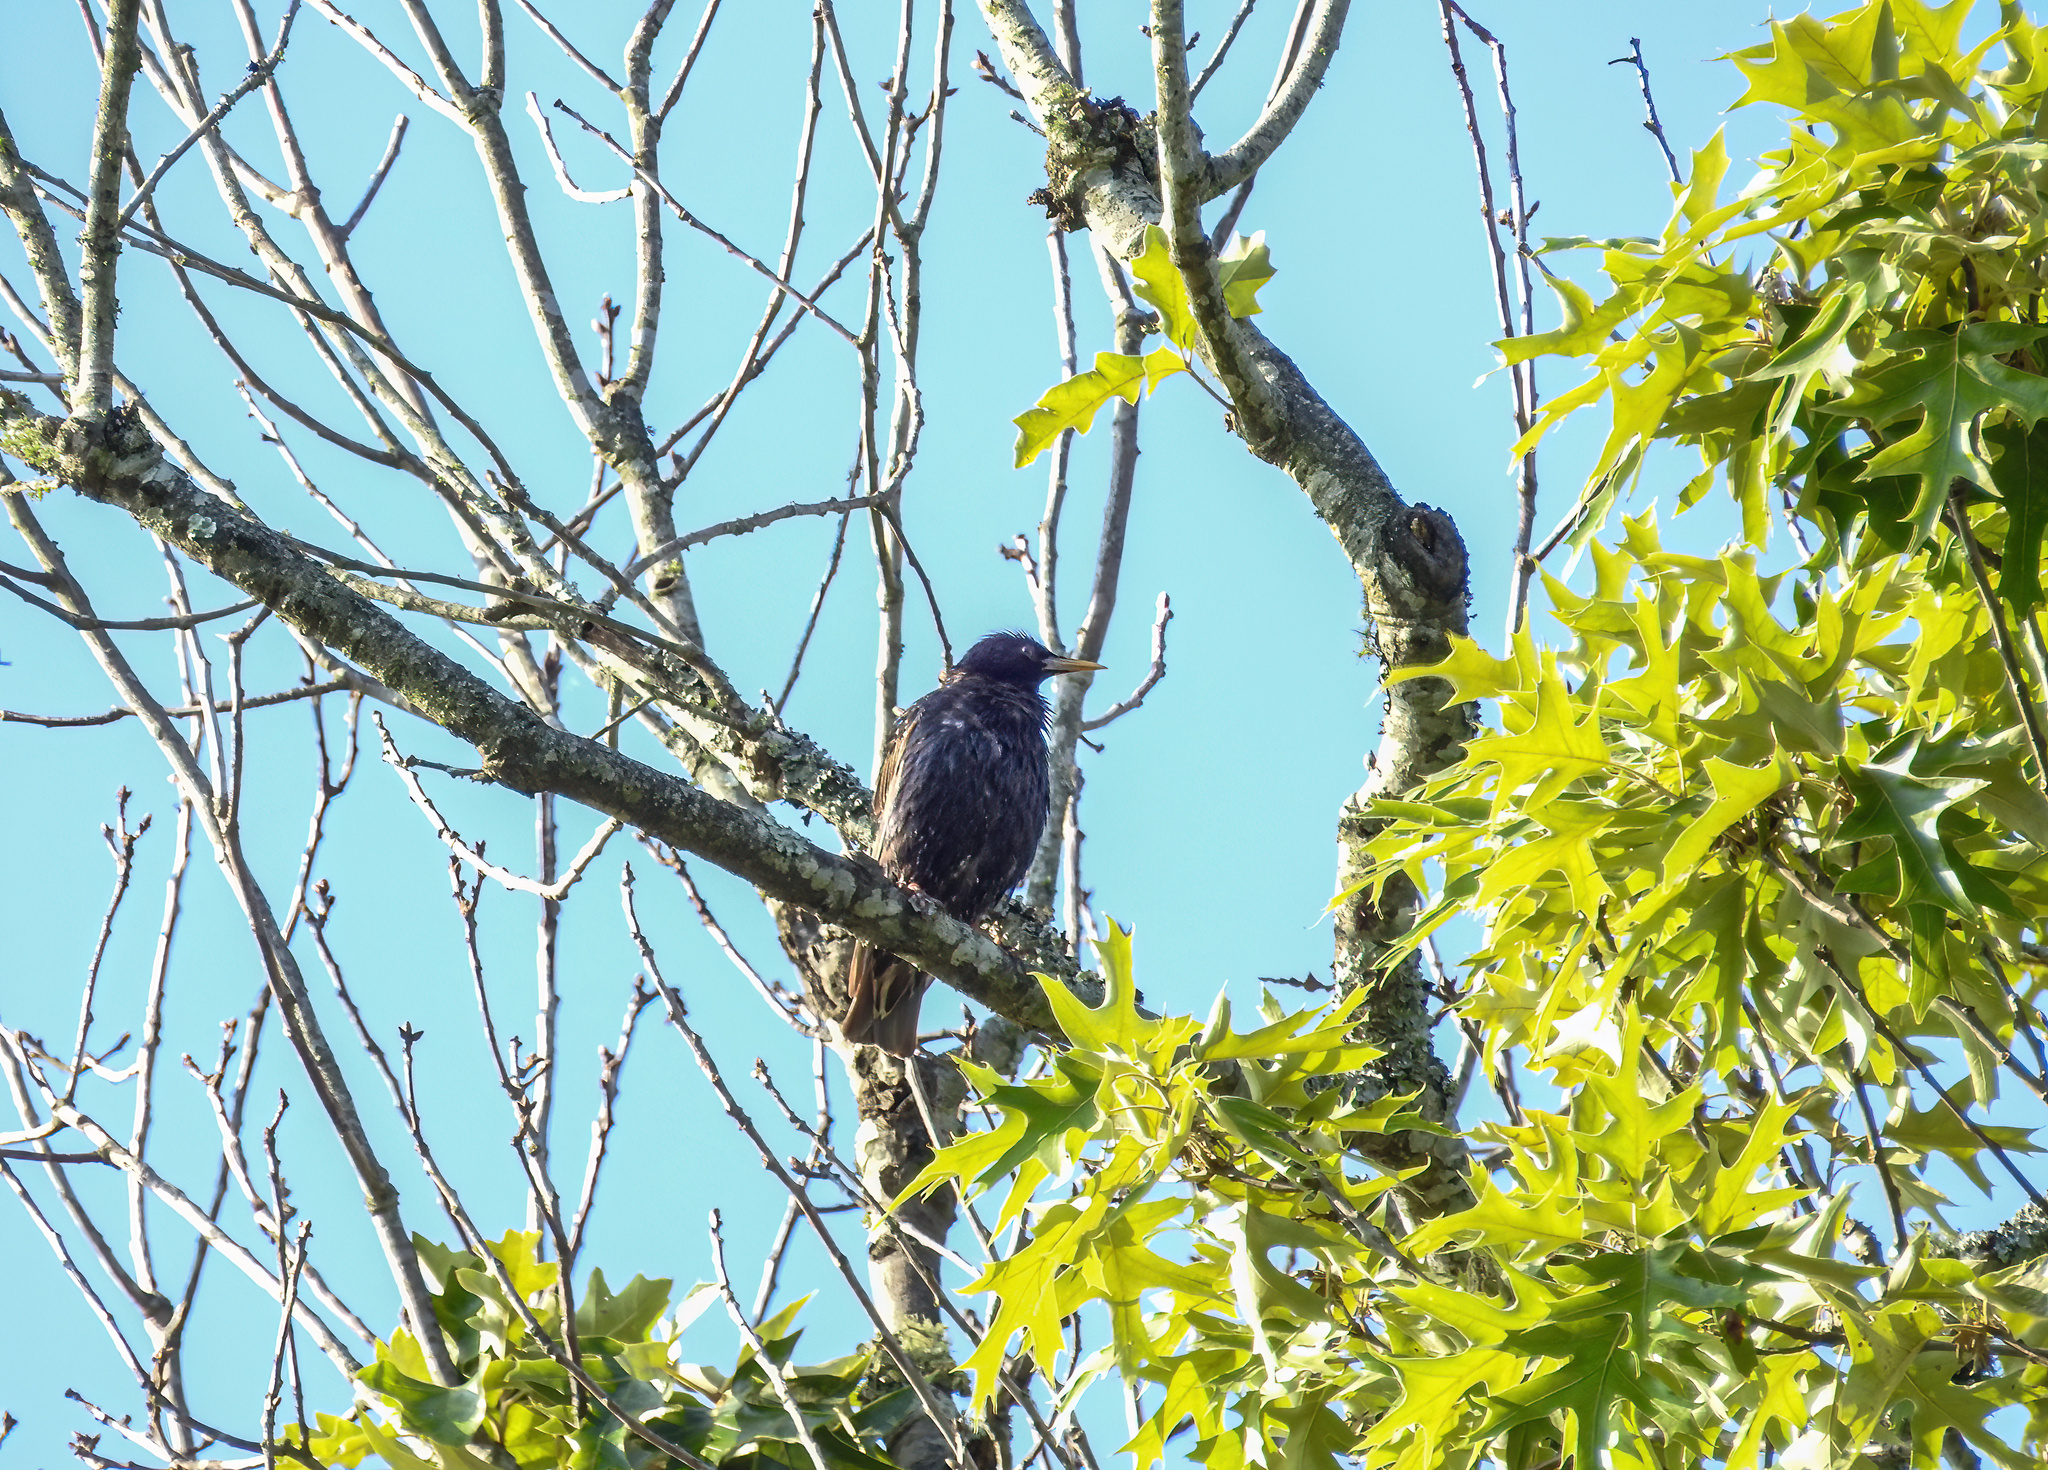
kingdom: Animalia
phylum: Chordata
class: Aves
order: Passeriformes
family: Sturnidae
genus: Sturnus
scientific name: Sturnus vulgaris
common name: Common starling
